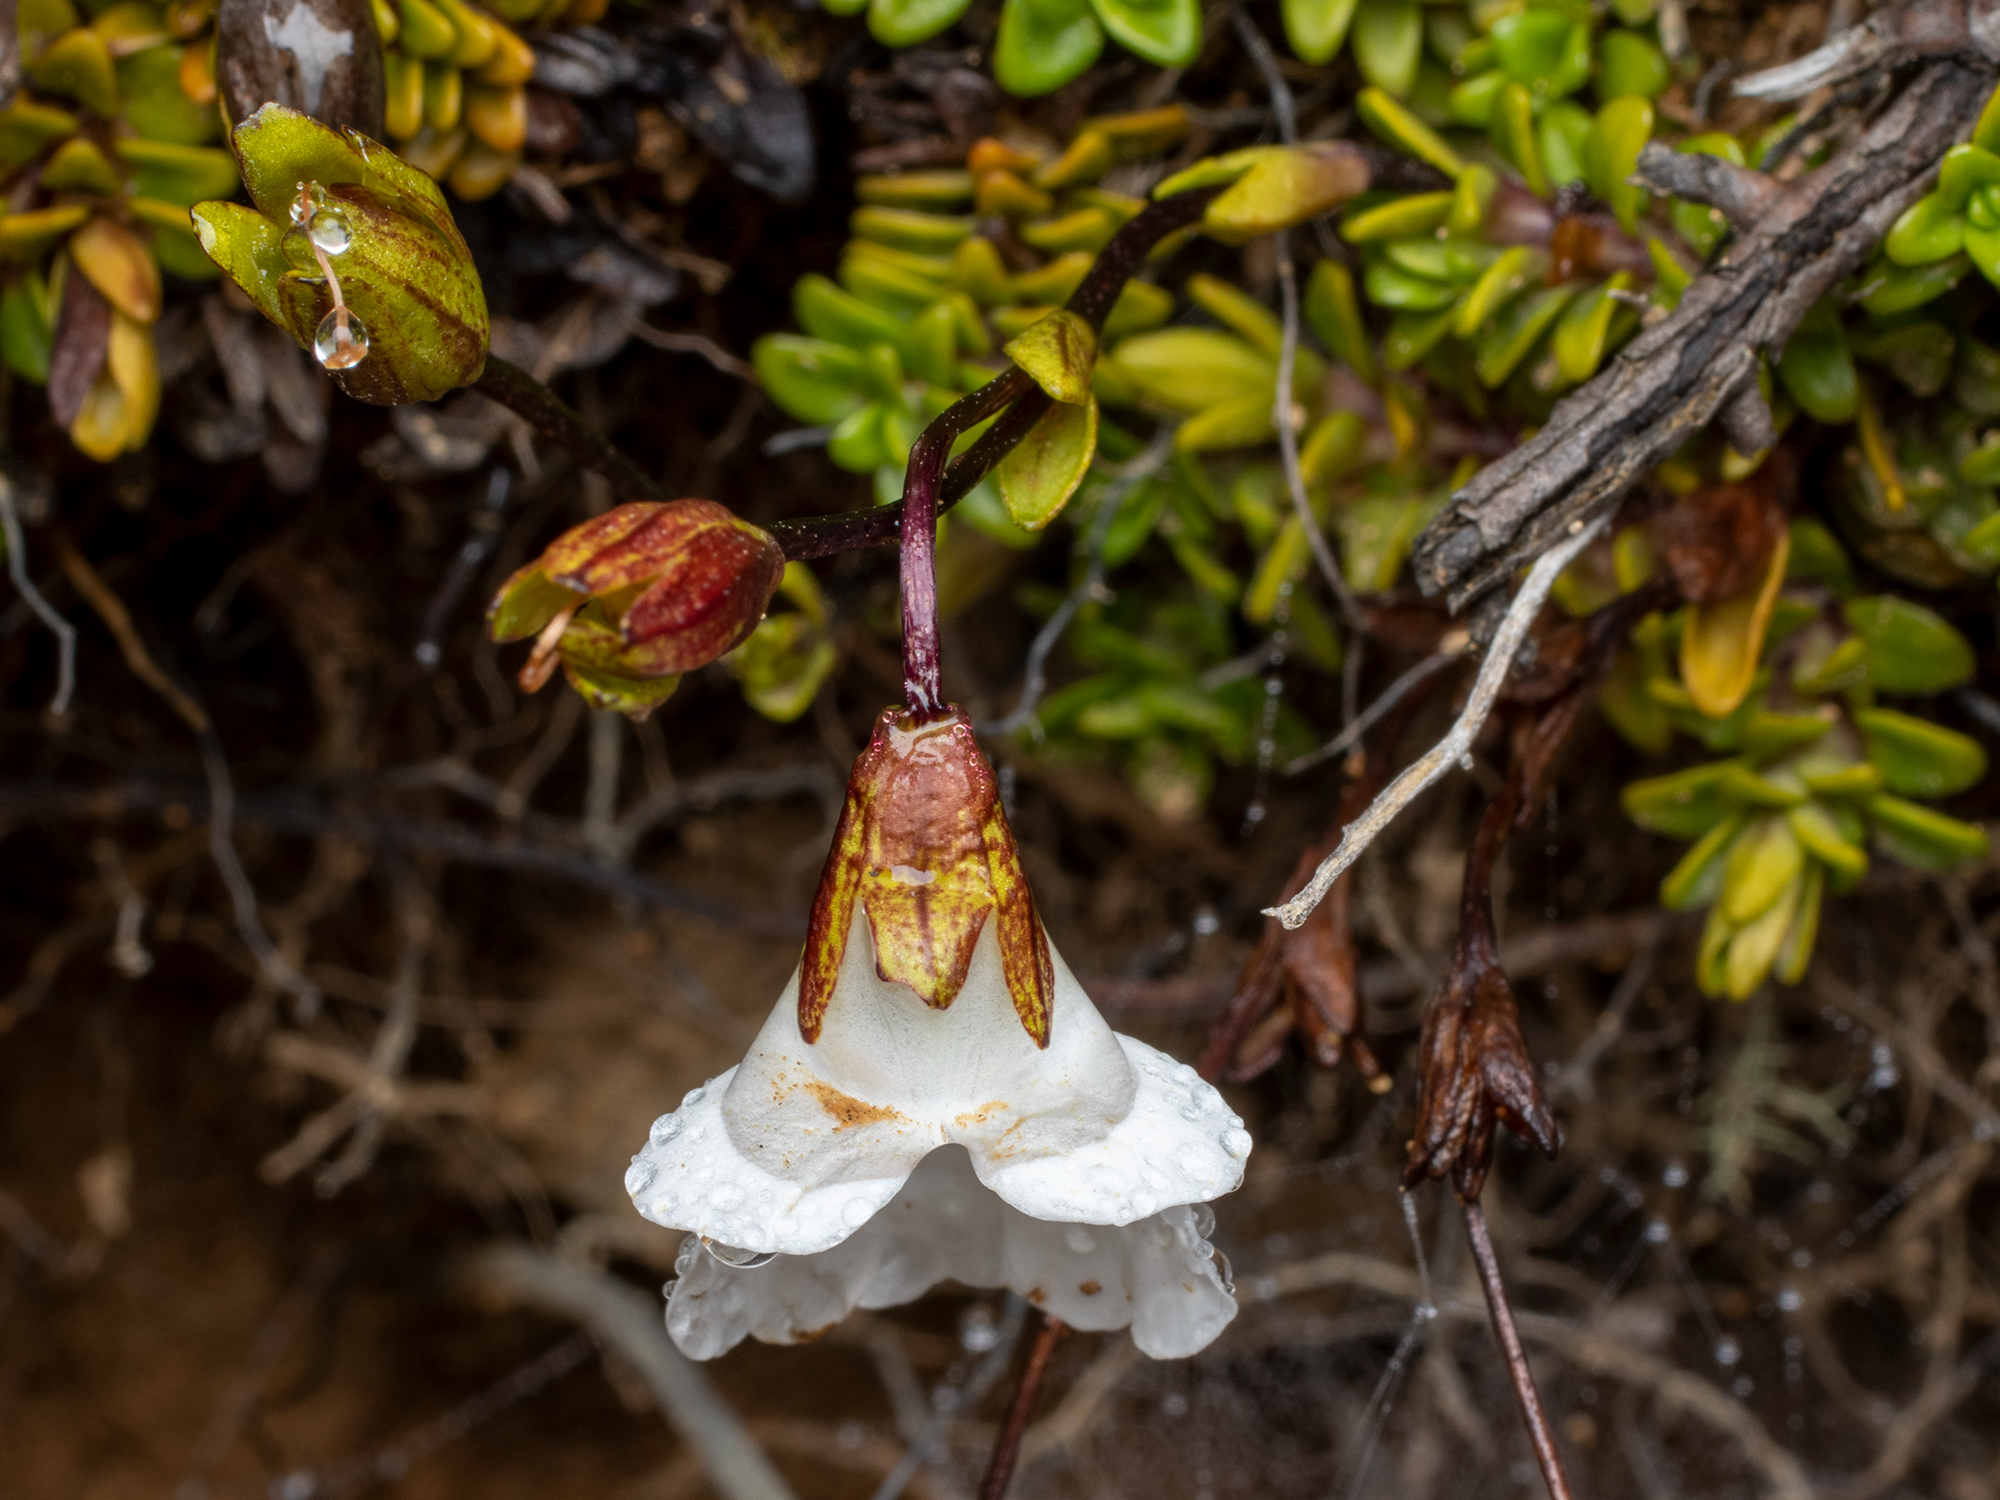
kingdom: Plantae
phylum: Tracheophyta
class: Magnoliopsida
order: Lamiales
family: Plantaginaceae
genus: Ourisia
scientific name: Ourisia caespitosa
